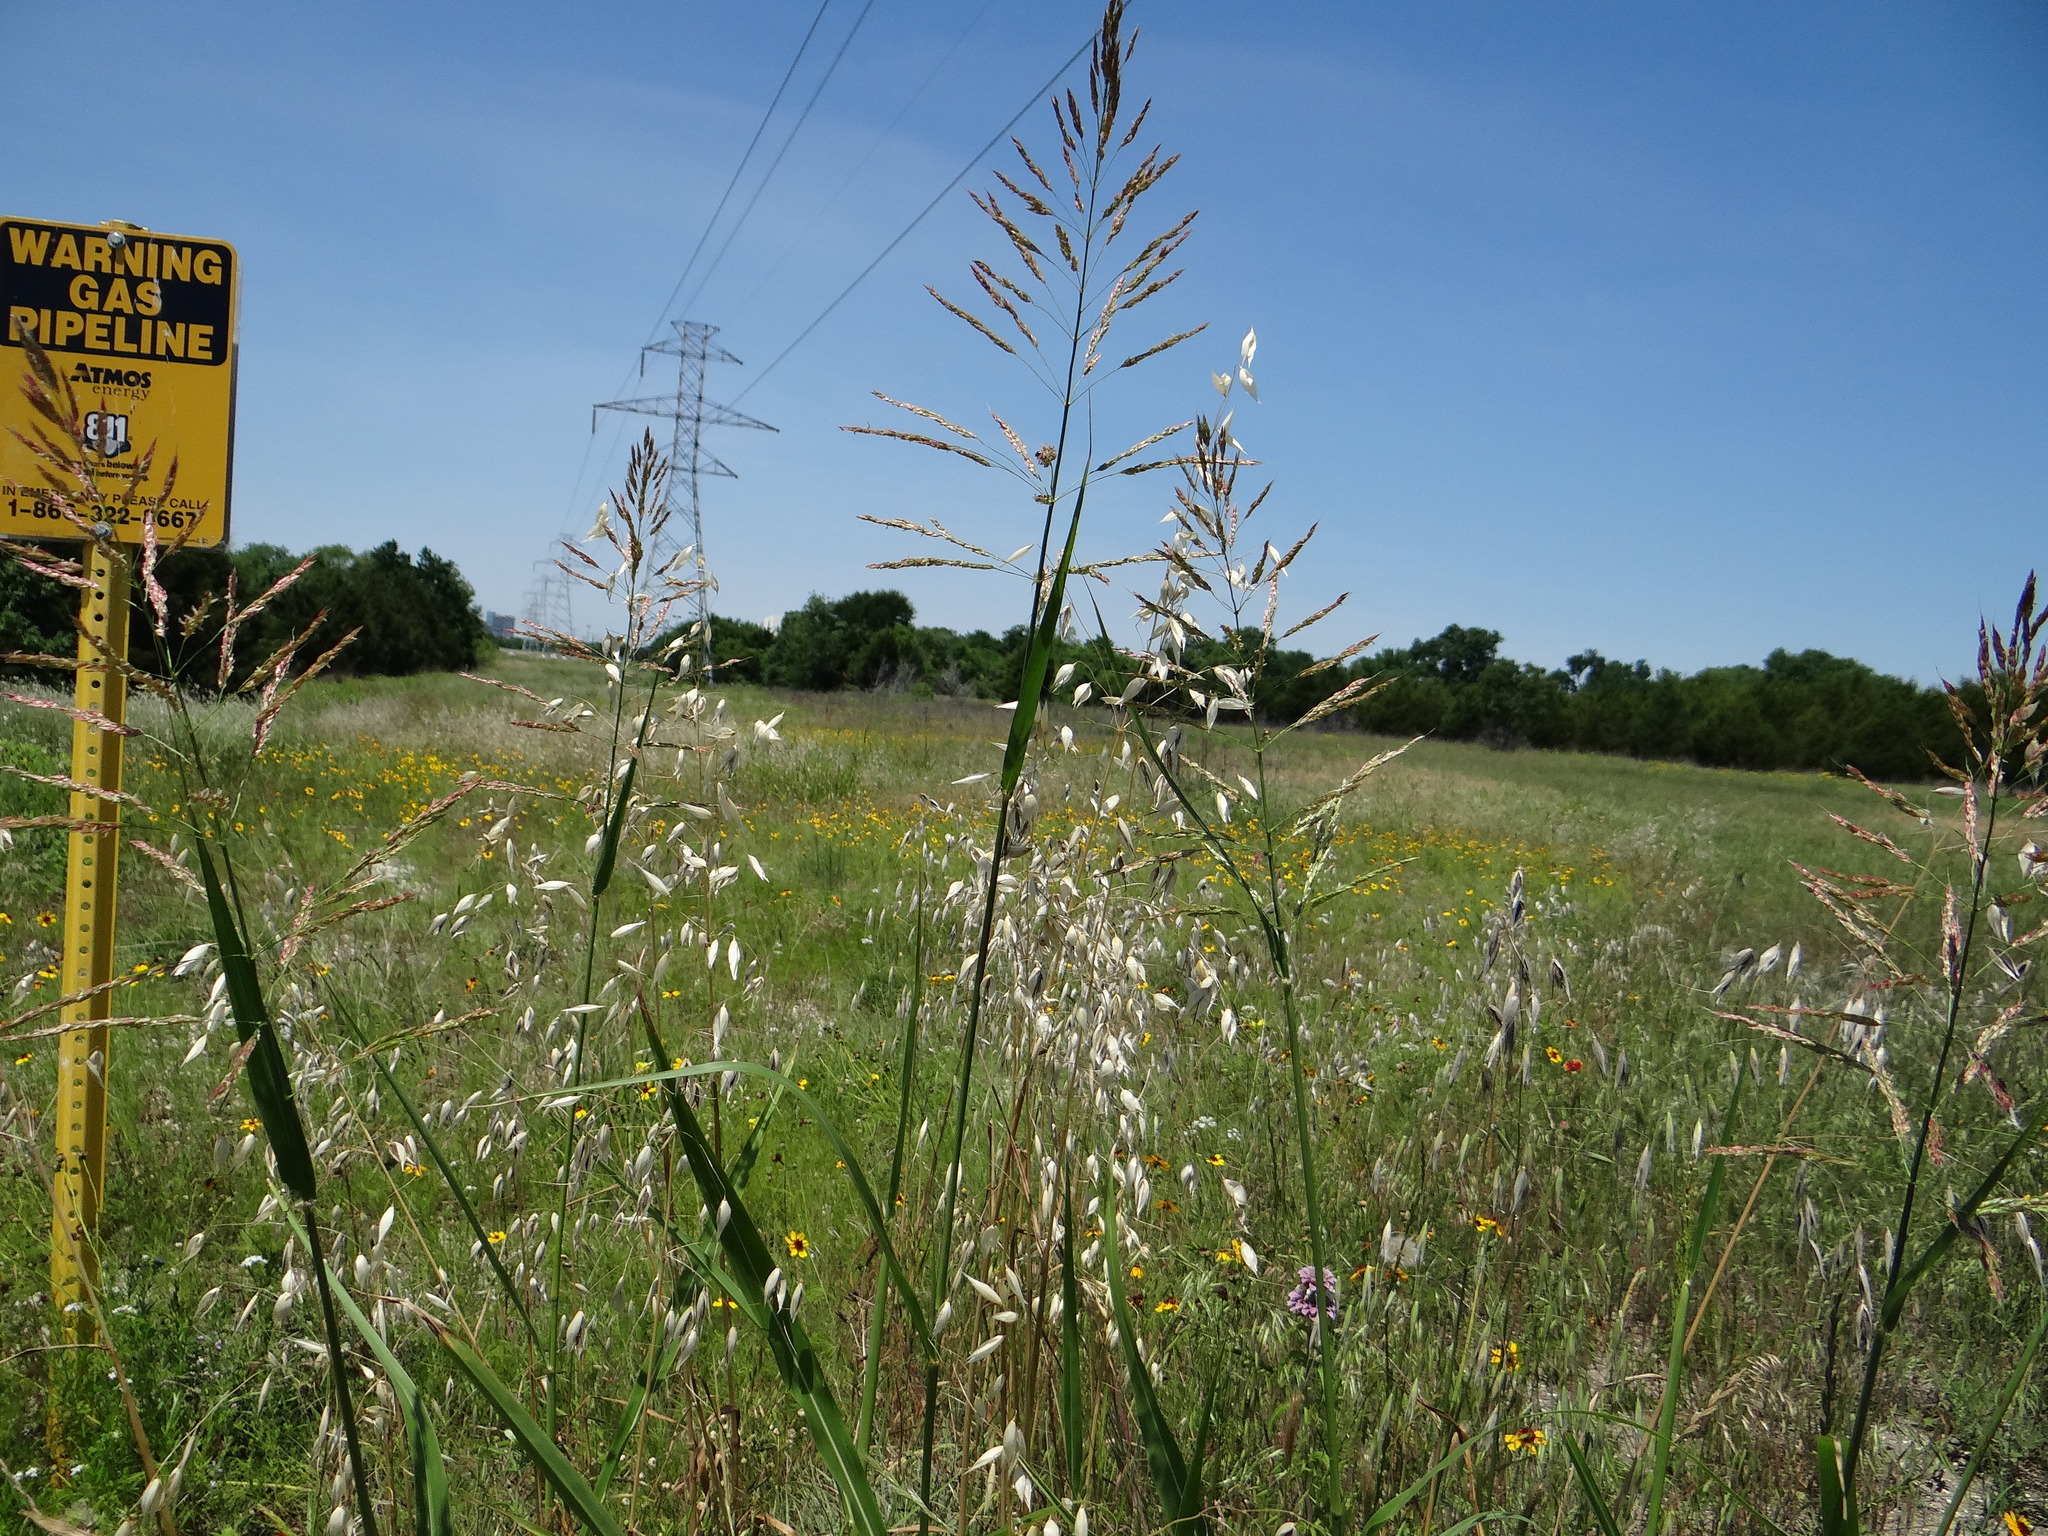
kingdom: Plantae
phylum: Tracheophyta
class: Liliopsida
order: Poales
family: Poaceae
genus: Sorghum
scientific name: Sorghum halepense
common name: Johnson-grass
